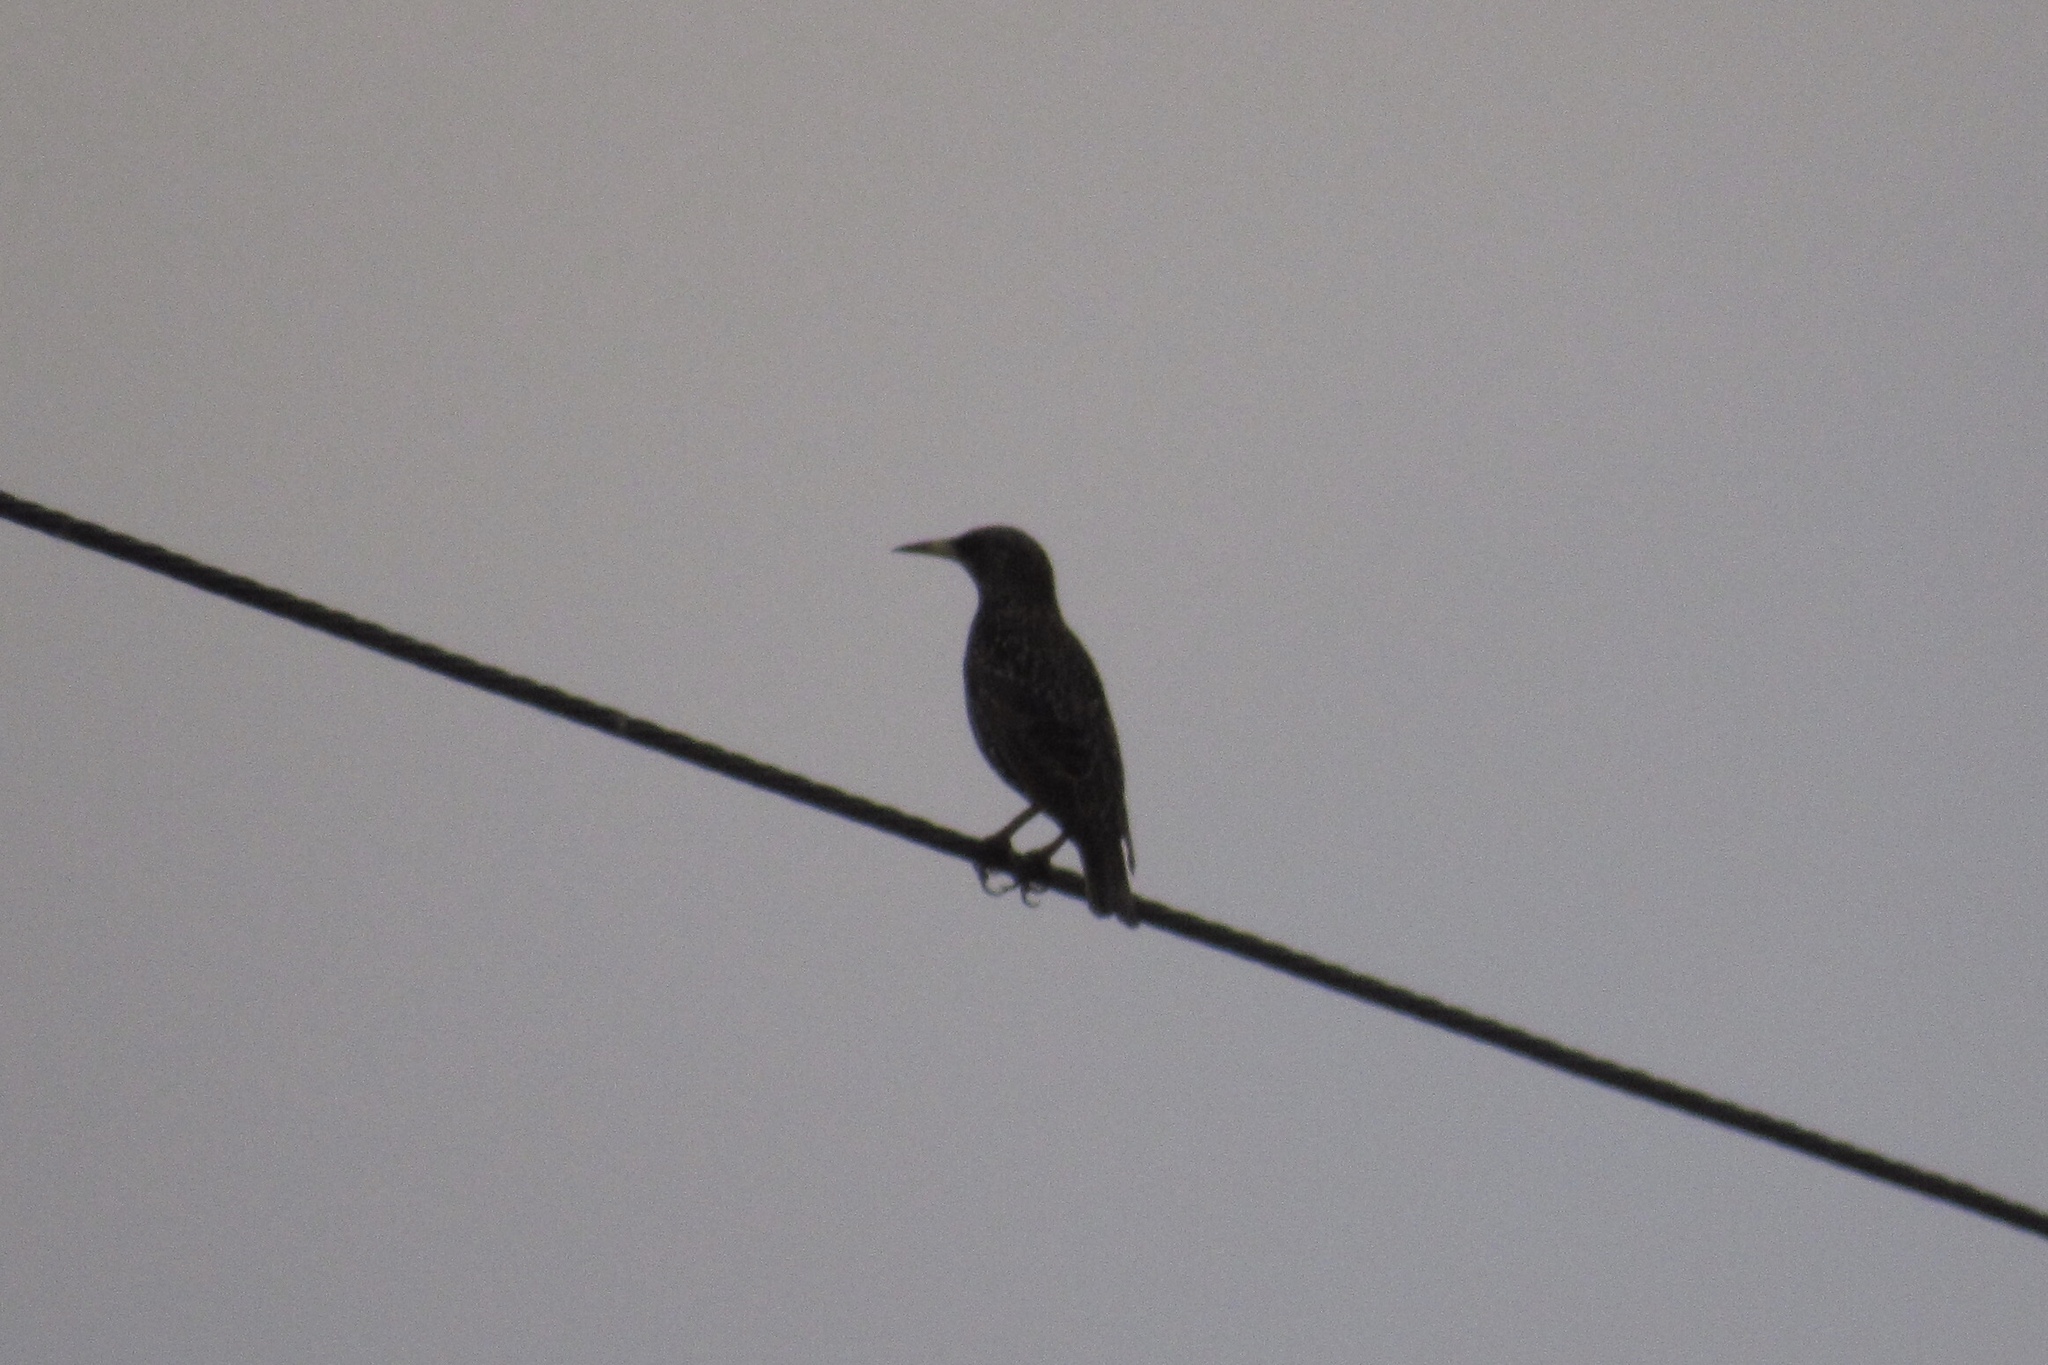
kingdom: Animalia
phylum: Chordata
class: Aves
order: Passeriformes
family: Sturnidae
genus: Sturnus
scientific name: Sturnus vulgaris
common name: Common starling
